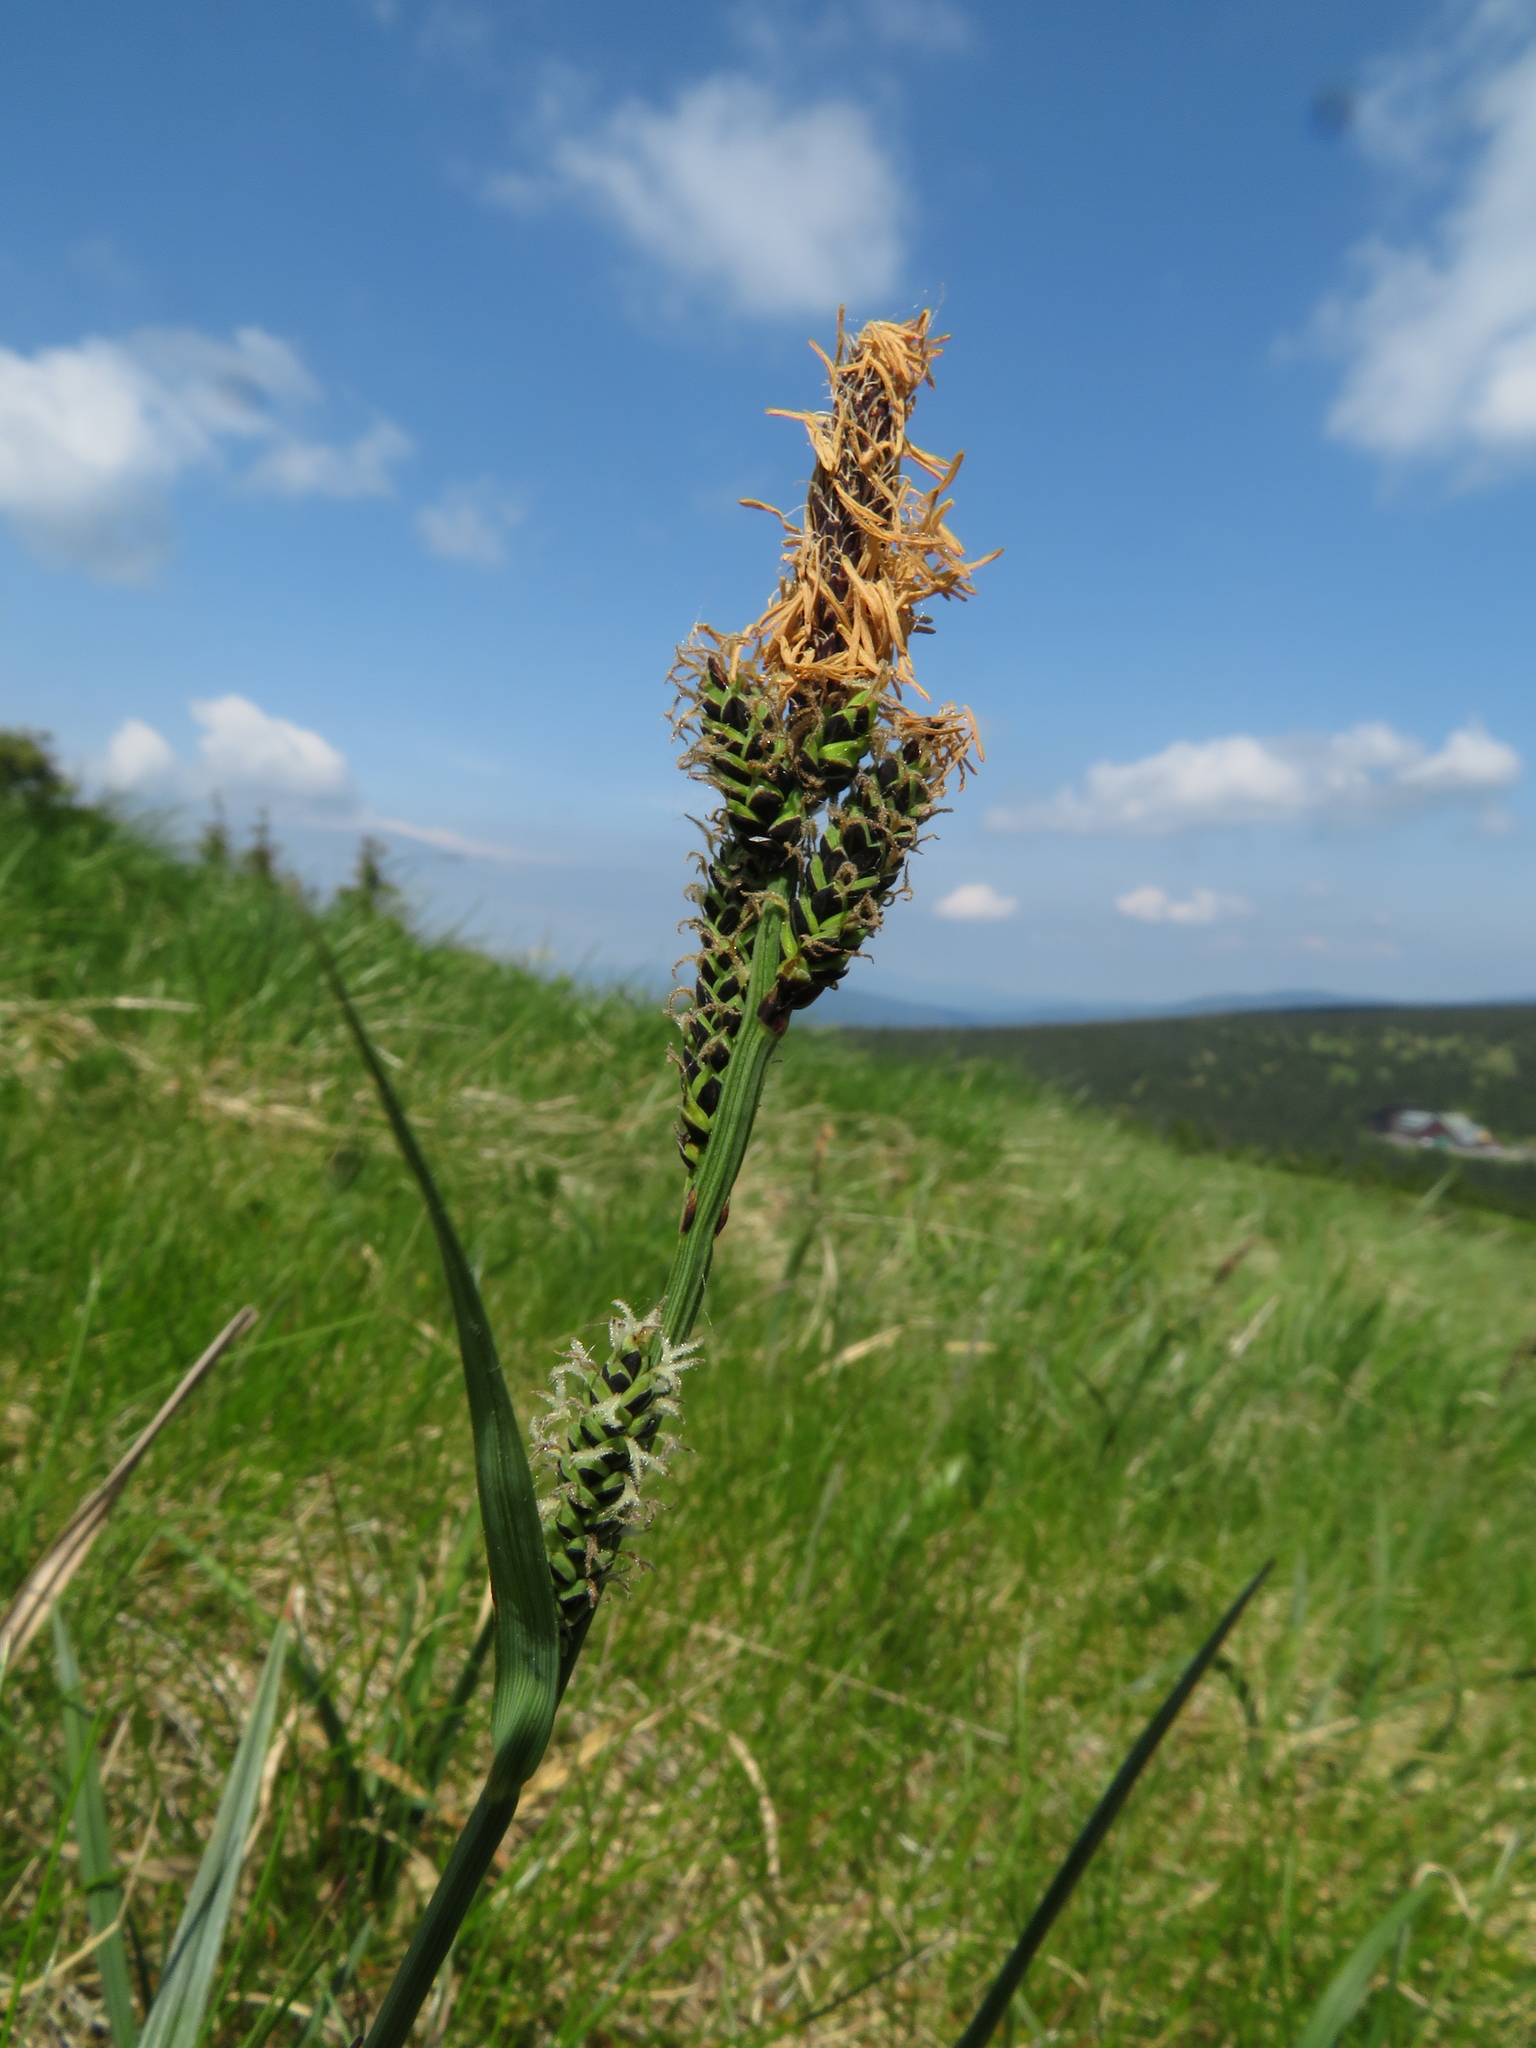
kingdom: Plantae
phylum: Tracheophyta
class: Liliopsida
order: Poales
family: Cyperaceae
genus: Carex
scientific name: Carex bigelowii
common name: Stiff sedge
